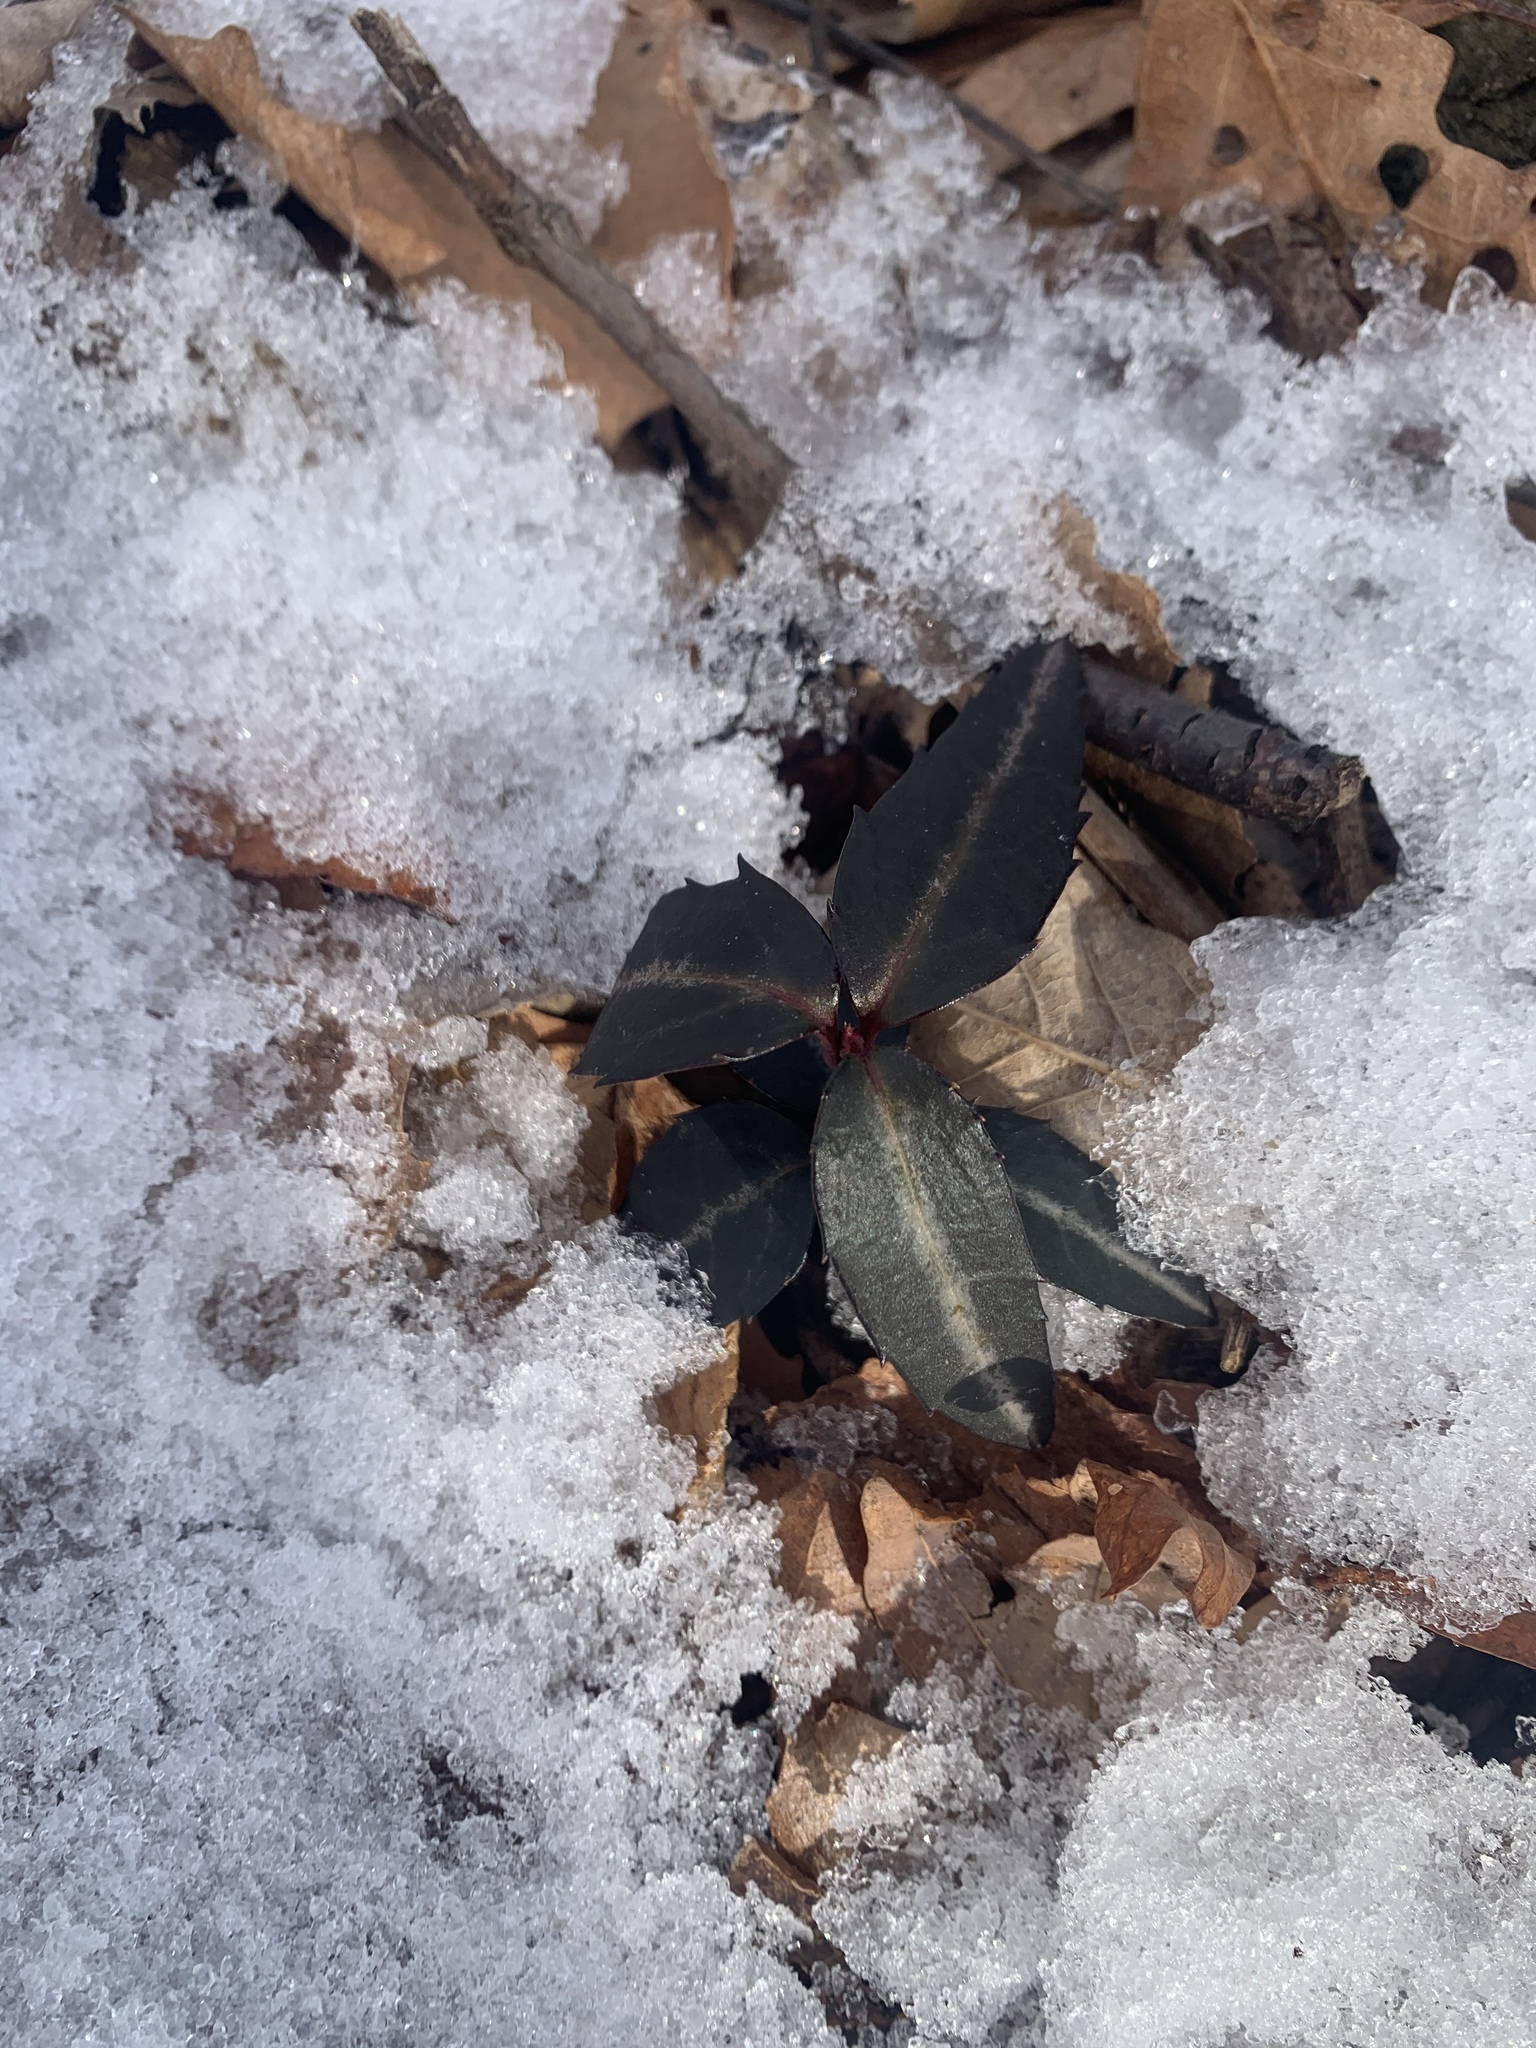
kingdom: Plantae
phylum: Tracheophyta
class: Magnoliopsida
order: Ericales
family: Ericaceae
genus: Chimaphila
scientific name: Chimaphila maculata
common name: Spotted pipsissewa
